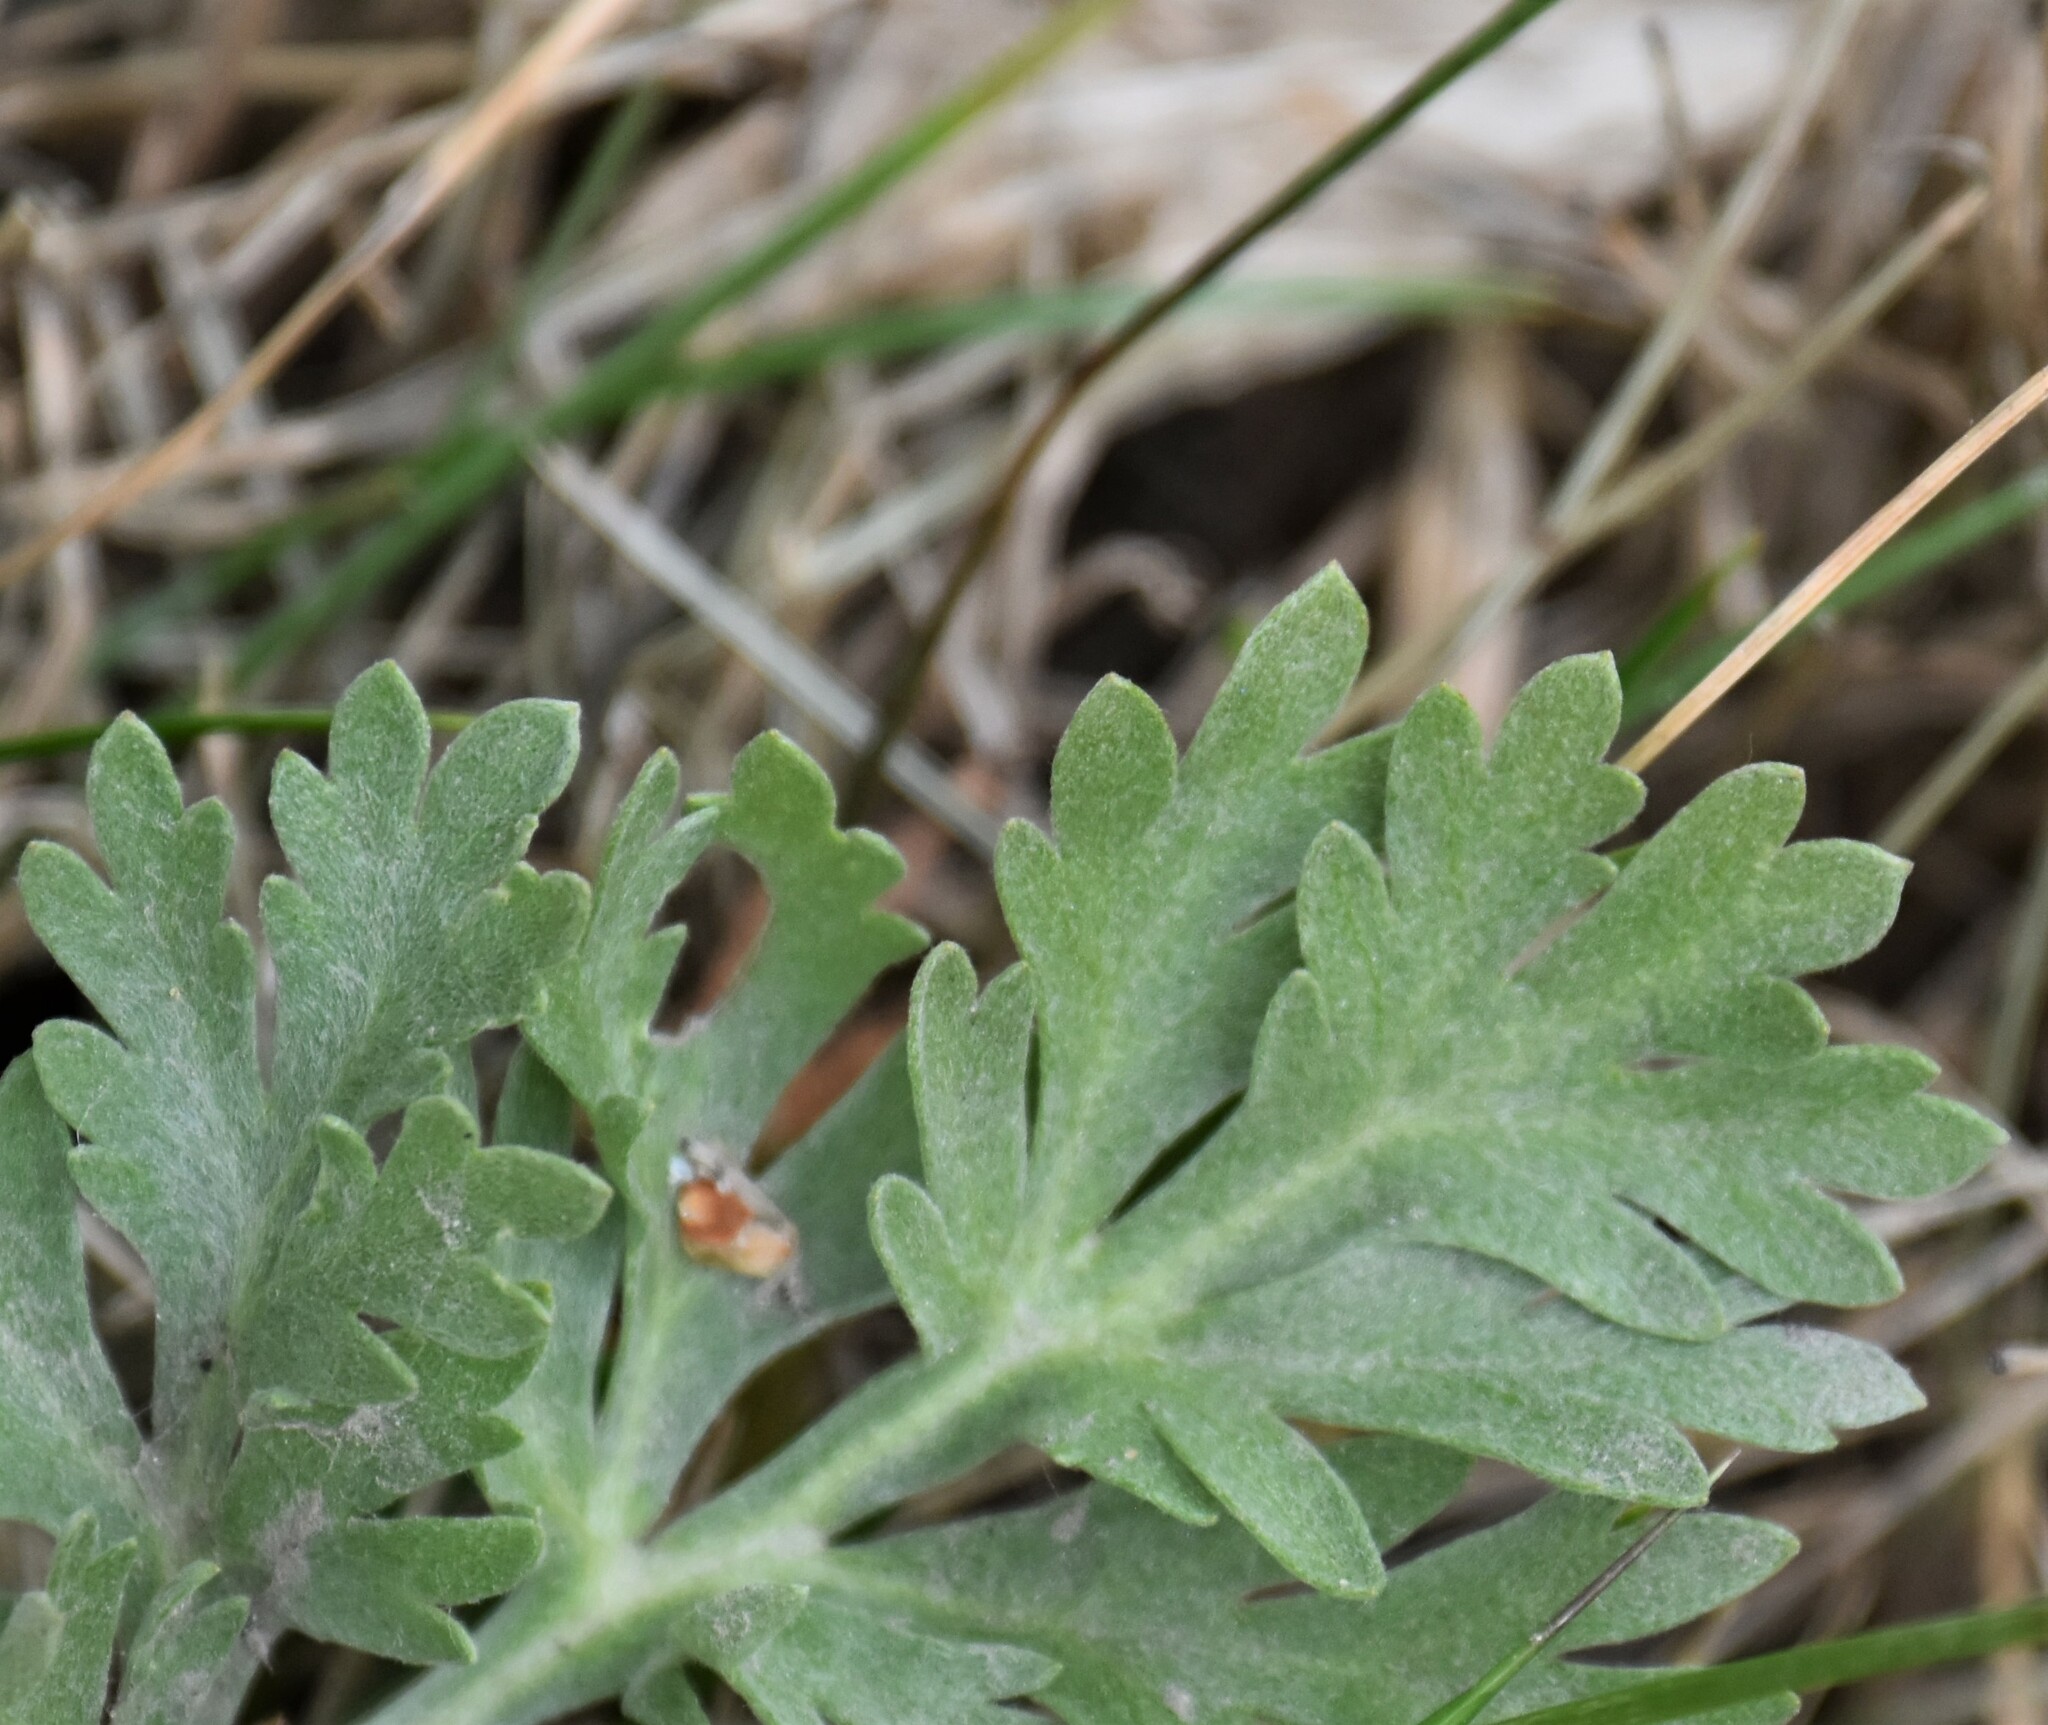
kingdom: Plantae
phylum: Tracheophyta
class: Magnoliopsida
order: Asterales
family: Asteraceae
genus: Artemisia
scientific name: Artemisia absinthium
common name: Wormwood
